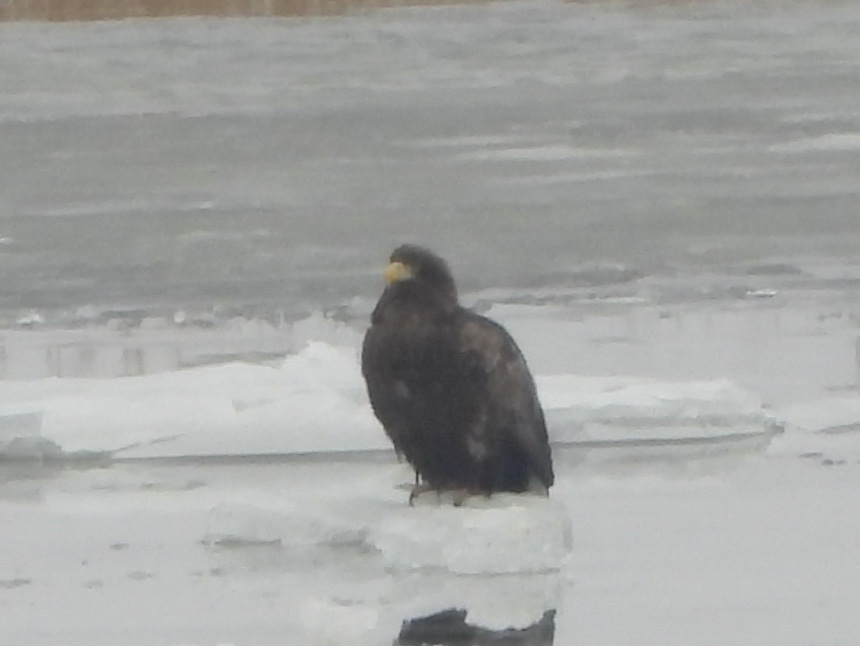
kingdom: Animalia
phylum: Chordata
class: Aves
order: Accipitriformes
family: Accipitridae
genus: Haliaeetus
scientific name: Haliaeetus albicilla
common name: White-tailed eagle
